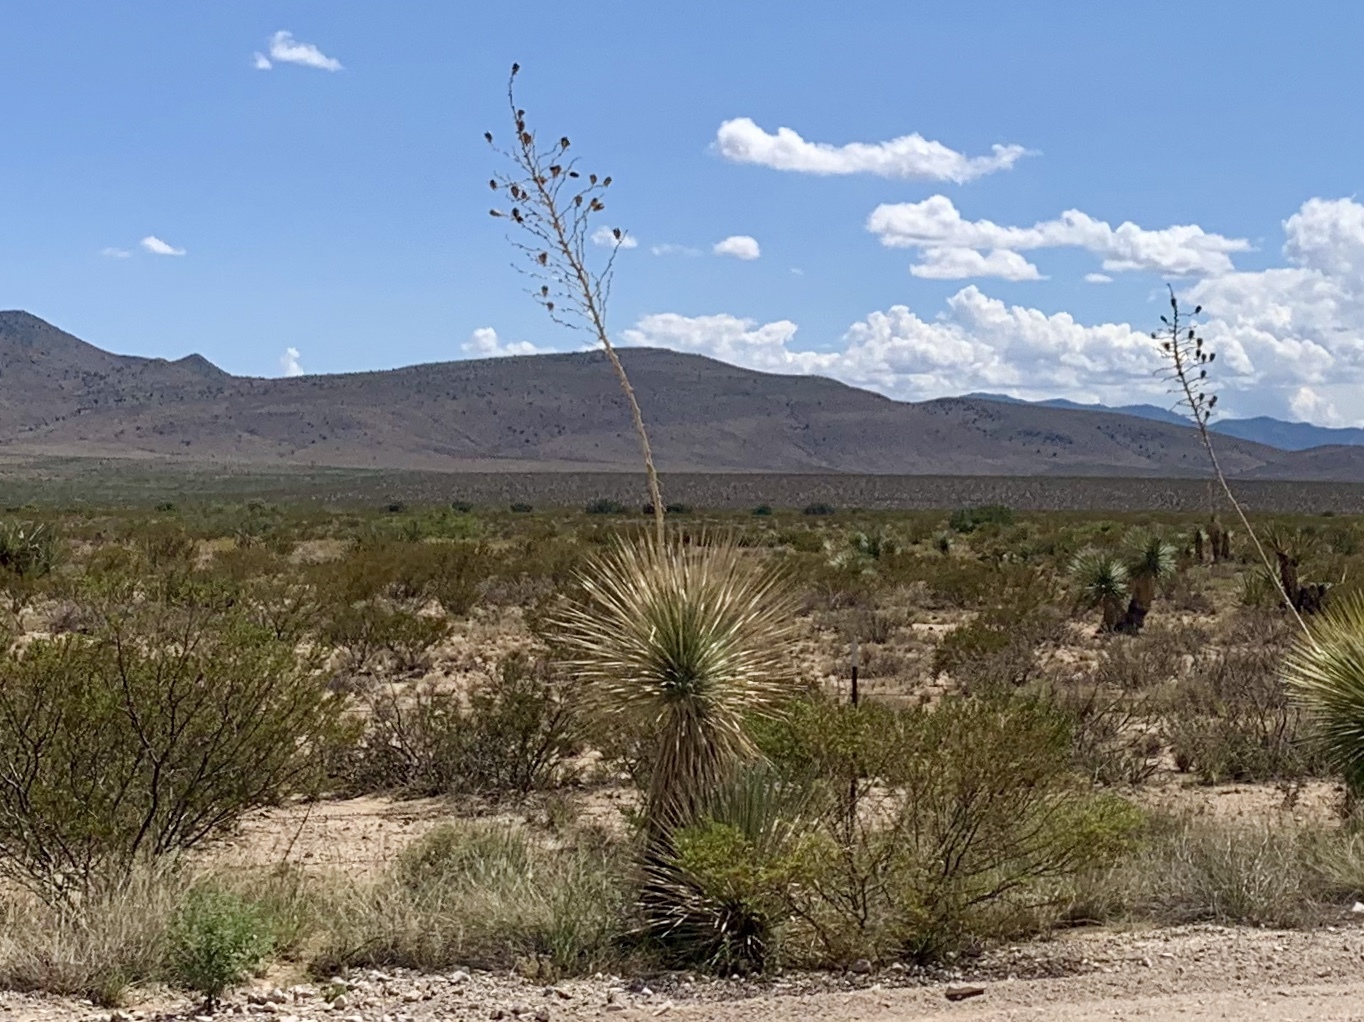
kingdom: Plantae
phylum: Tracheophyta
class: Liliopsida
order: Asparagales
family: Asparagaceae
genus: Yucca
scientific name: Yucca elata
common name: Palmella
